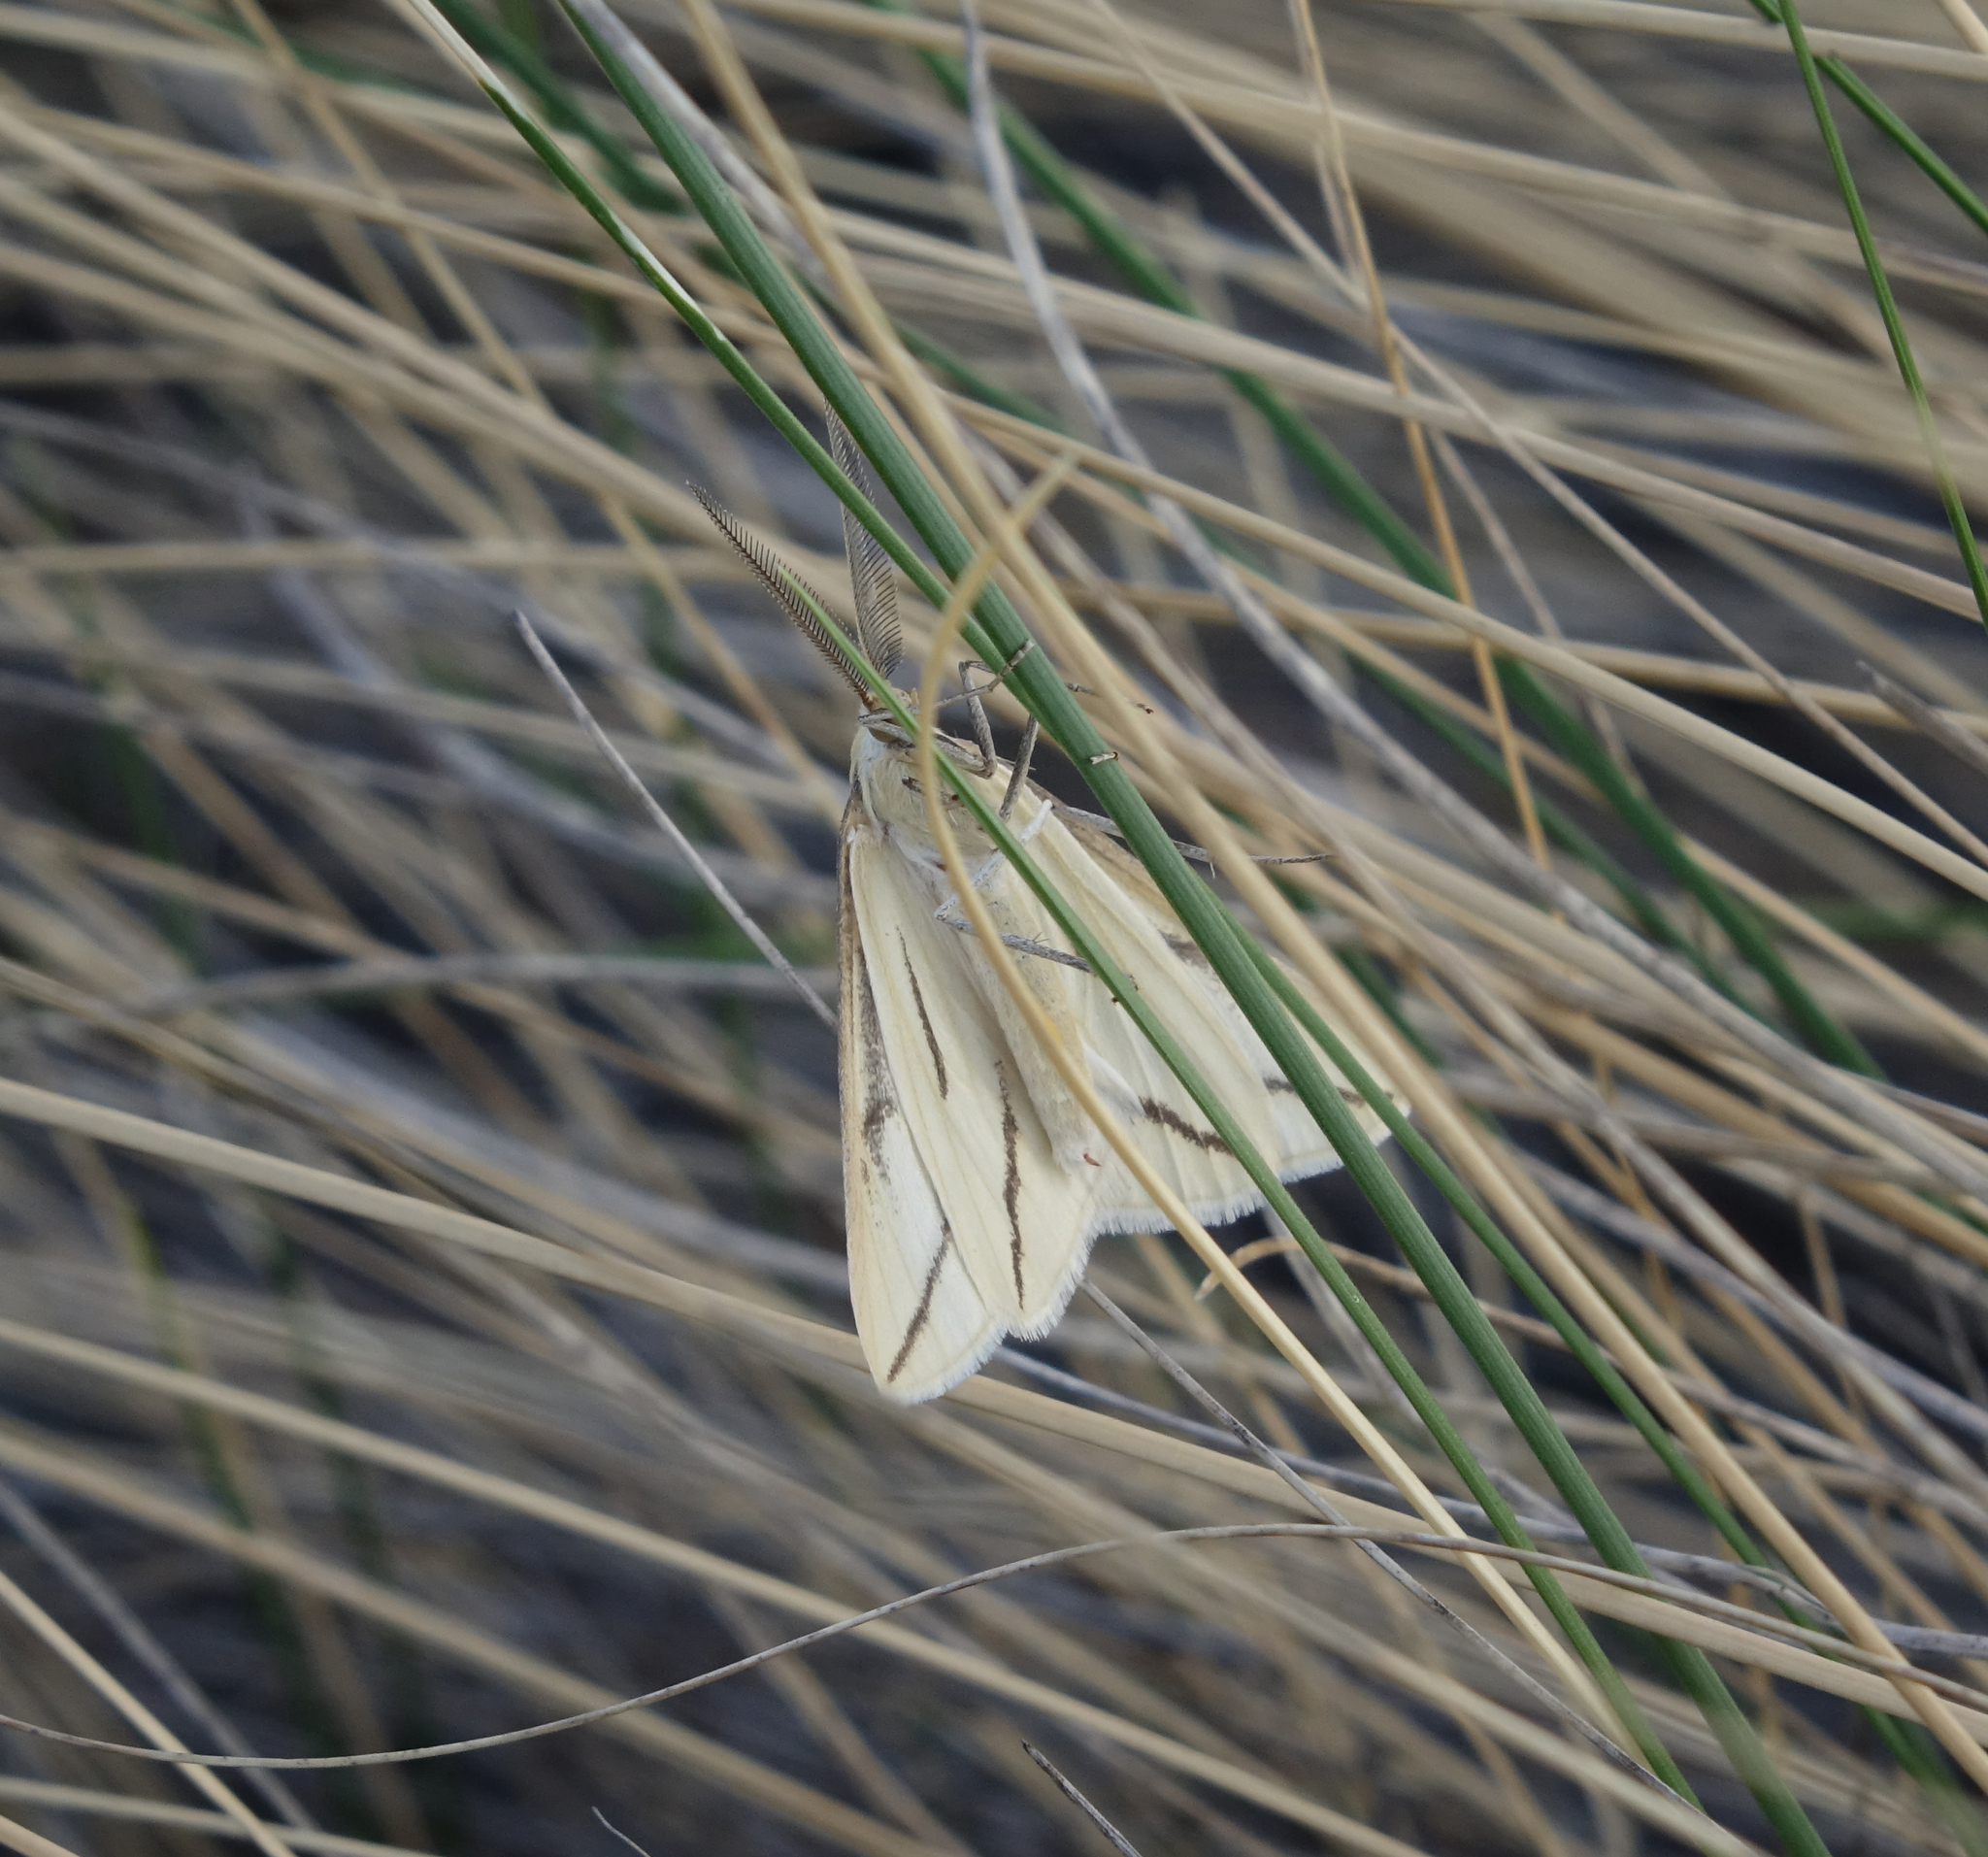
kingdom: Animalia
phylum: Arthropoda
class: Insecta
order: Lepidoptera
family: Geometridae
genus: Aspitates
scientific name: Aspitates curvaria
